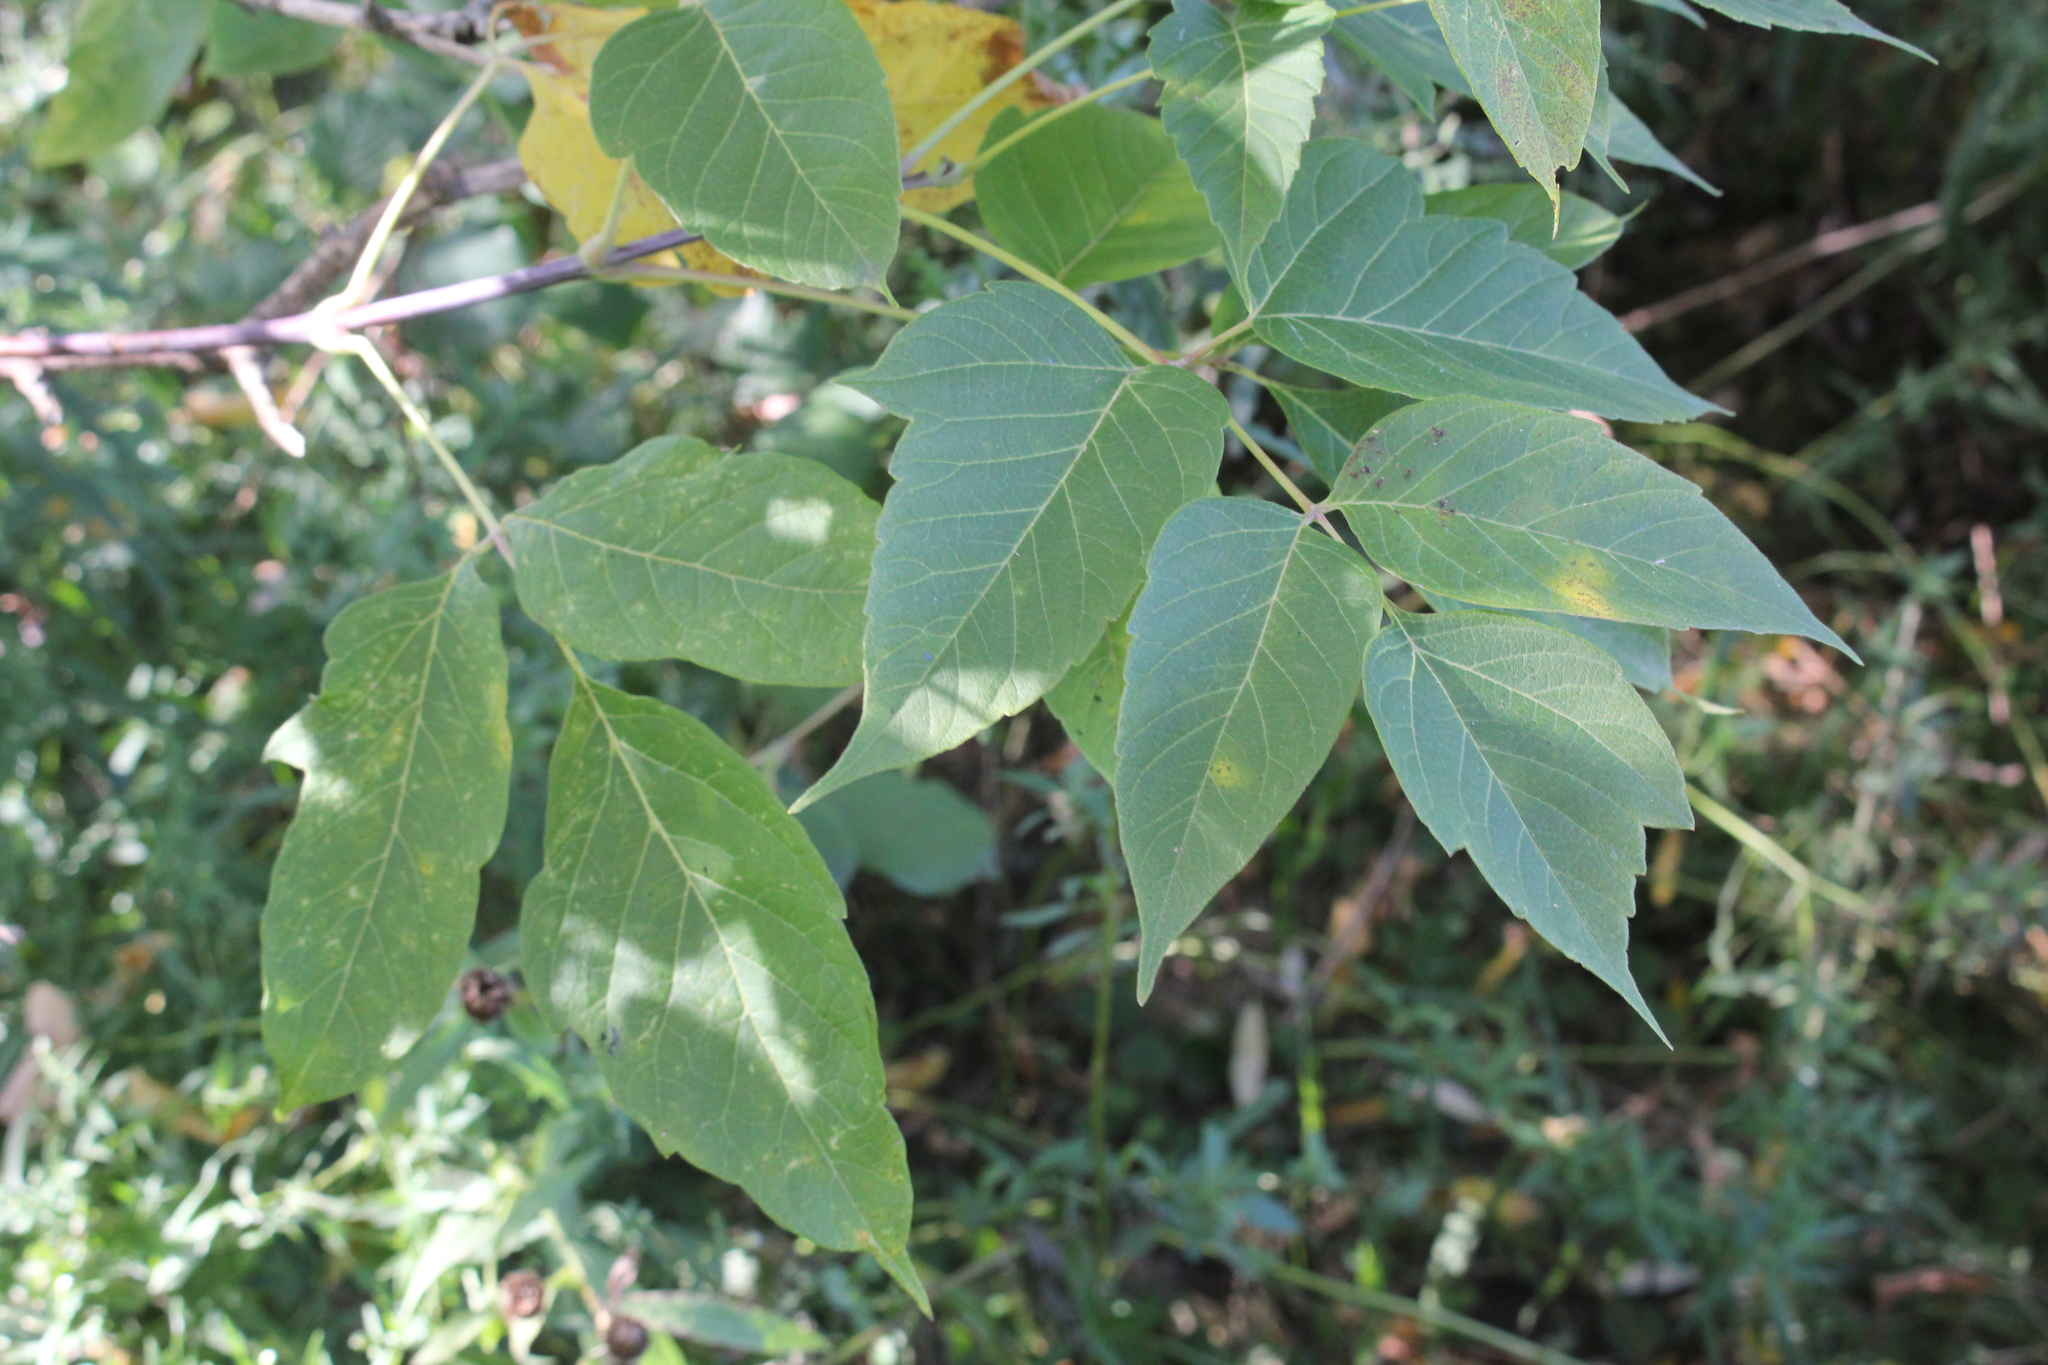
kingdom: Plantae
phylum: Tracheophyta
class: Magnoliopsida
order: Sapindales
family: Sapindaceae
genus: Acer
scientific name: Acer negundo
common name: Ashleaf maple
